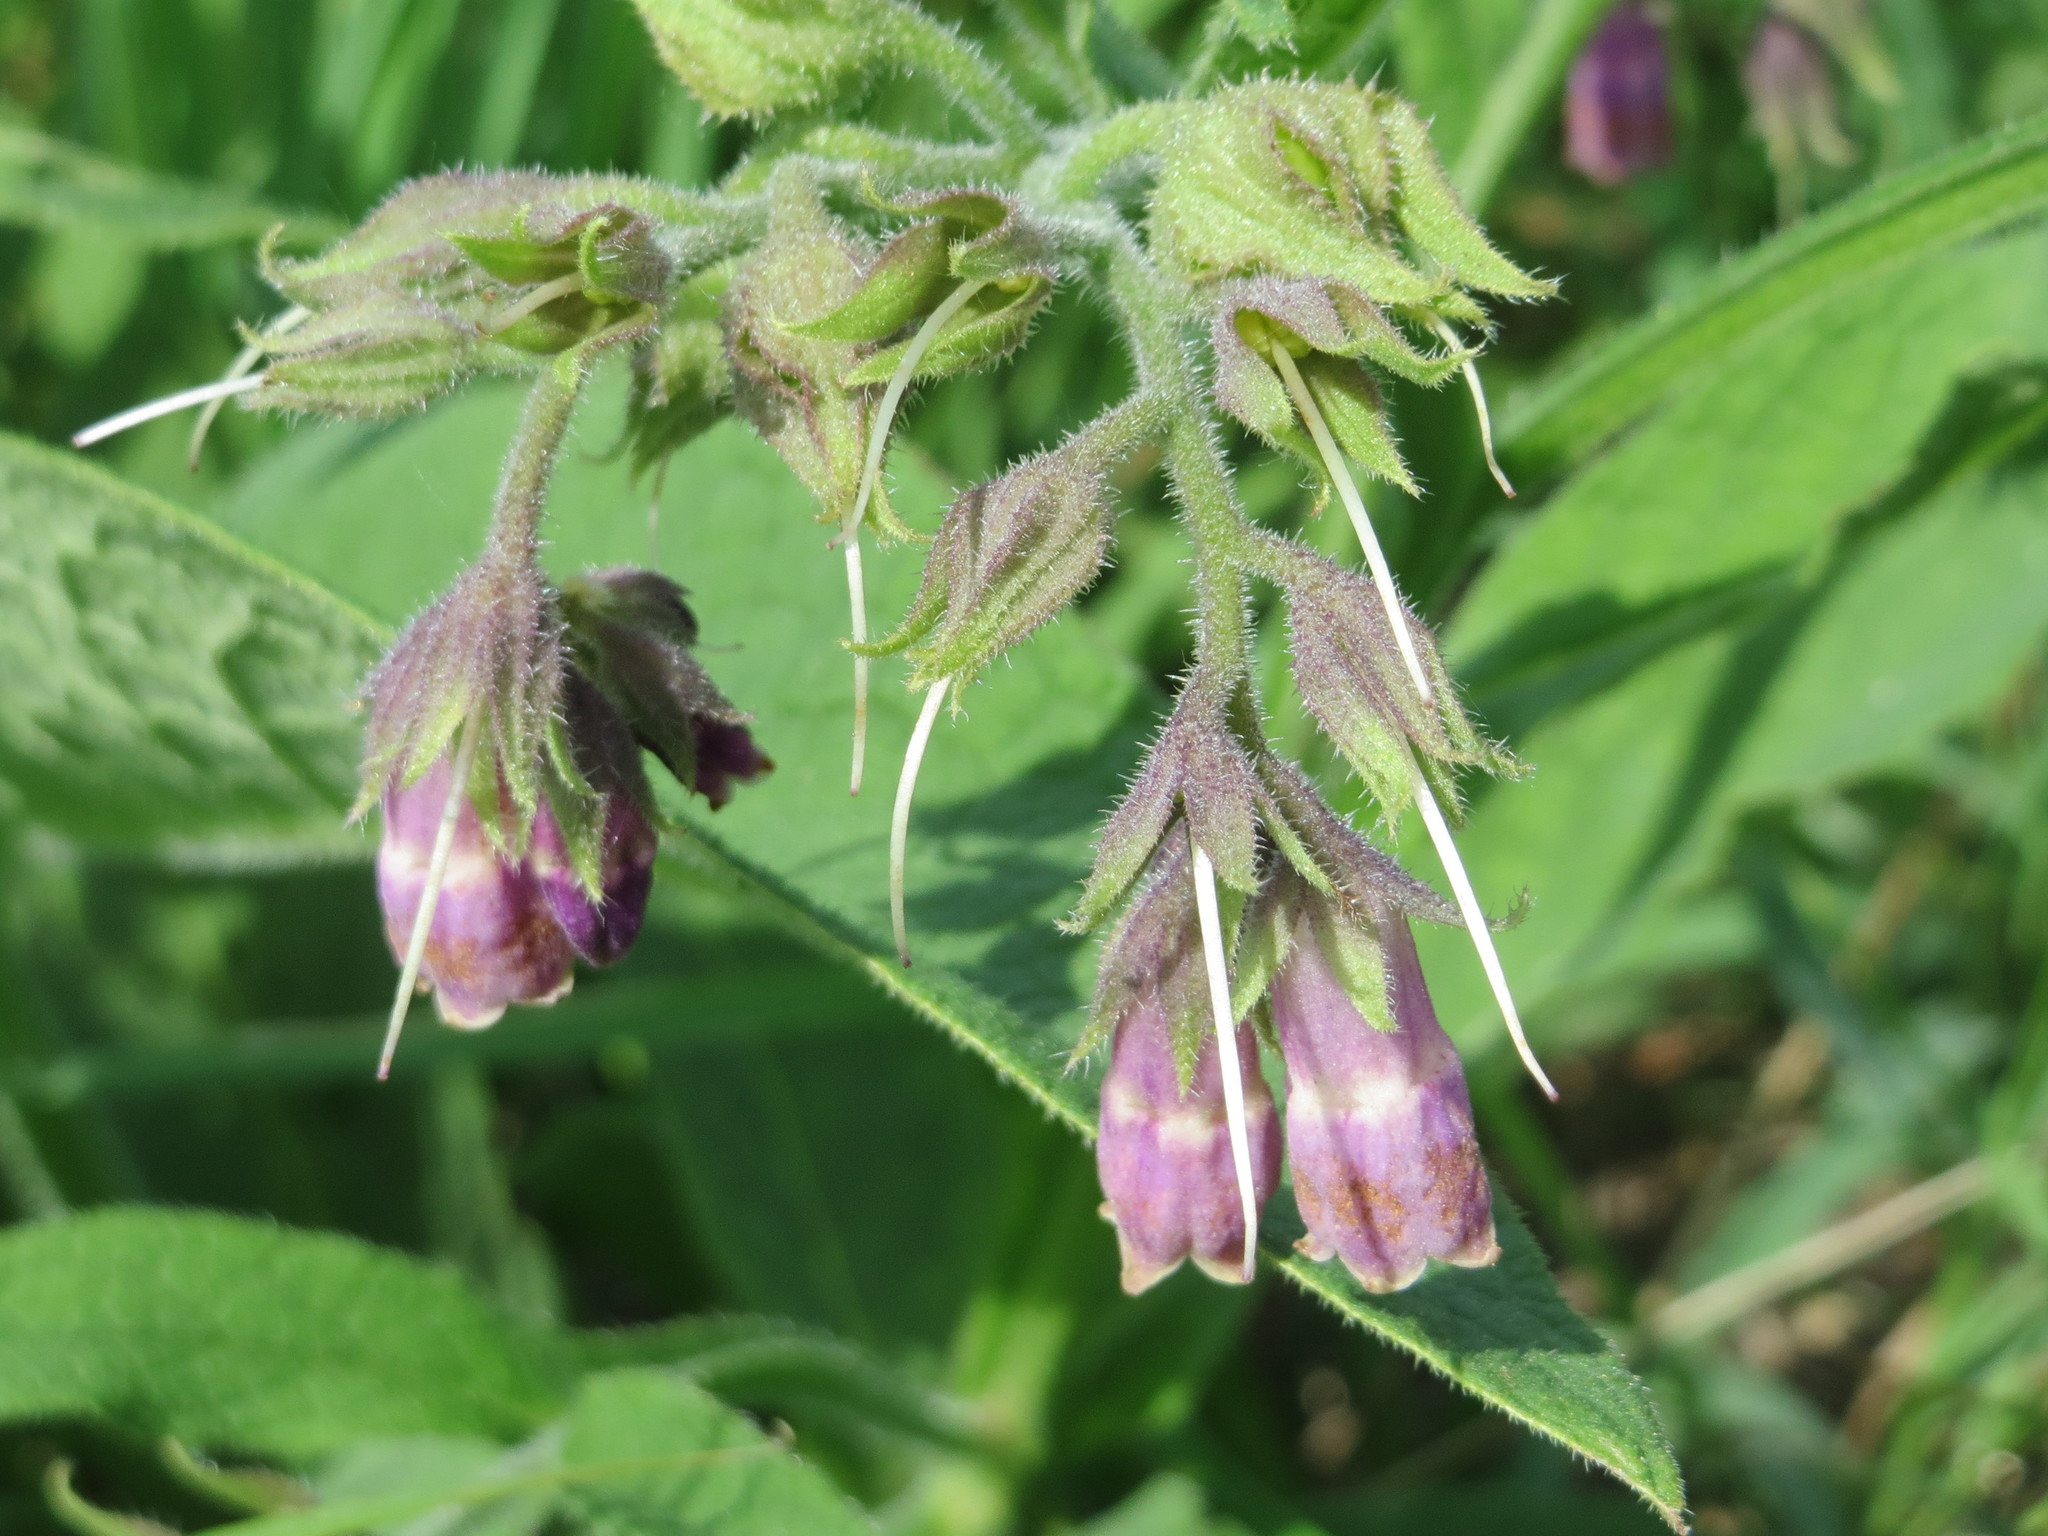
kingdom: Plantae
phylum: Tracheophyta
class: Magnoliopsida
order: Boraginales
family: Boraginaceae
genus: Symphytum
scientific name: Symphytum officinale
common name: Common comfrey
